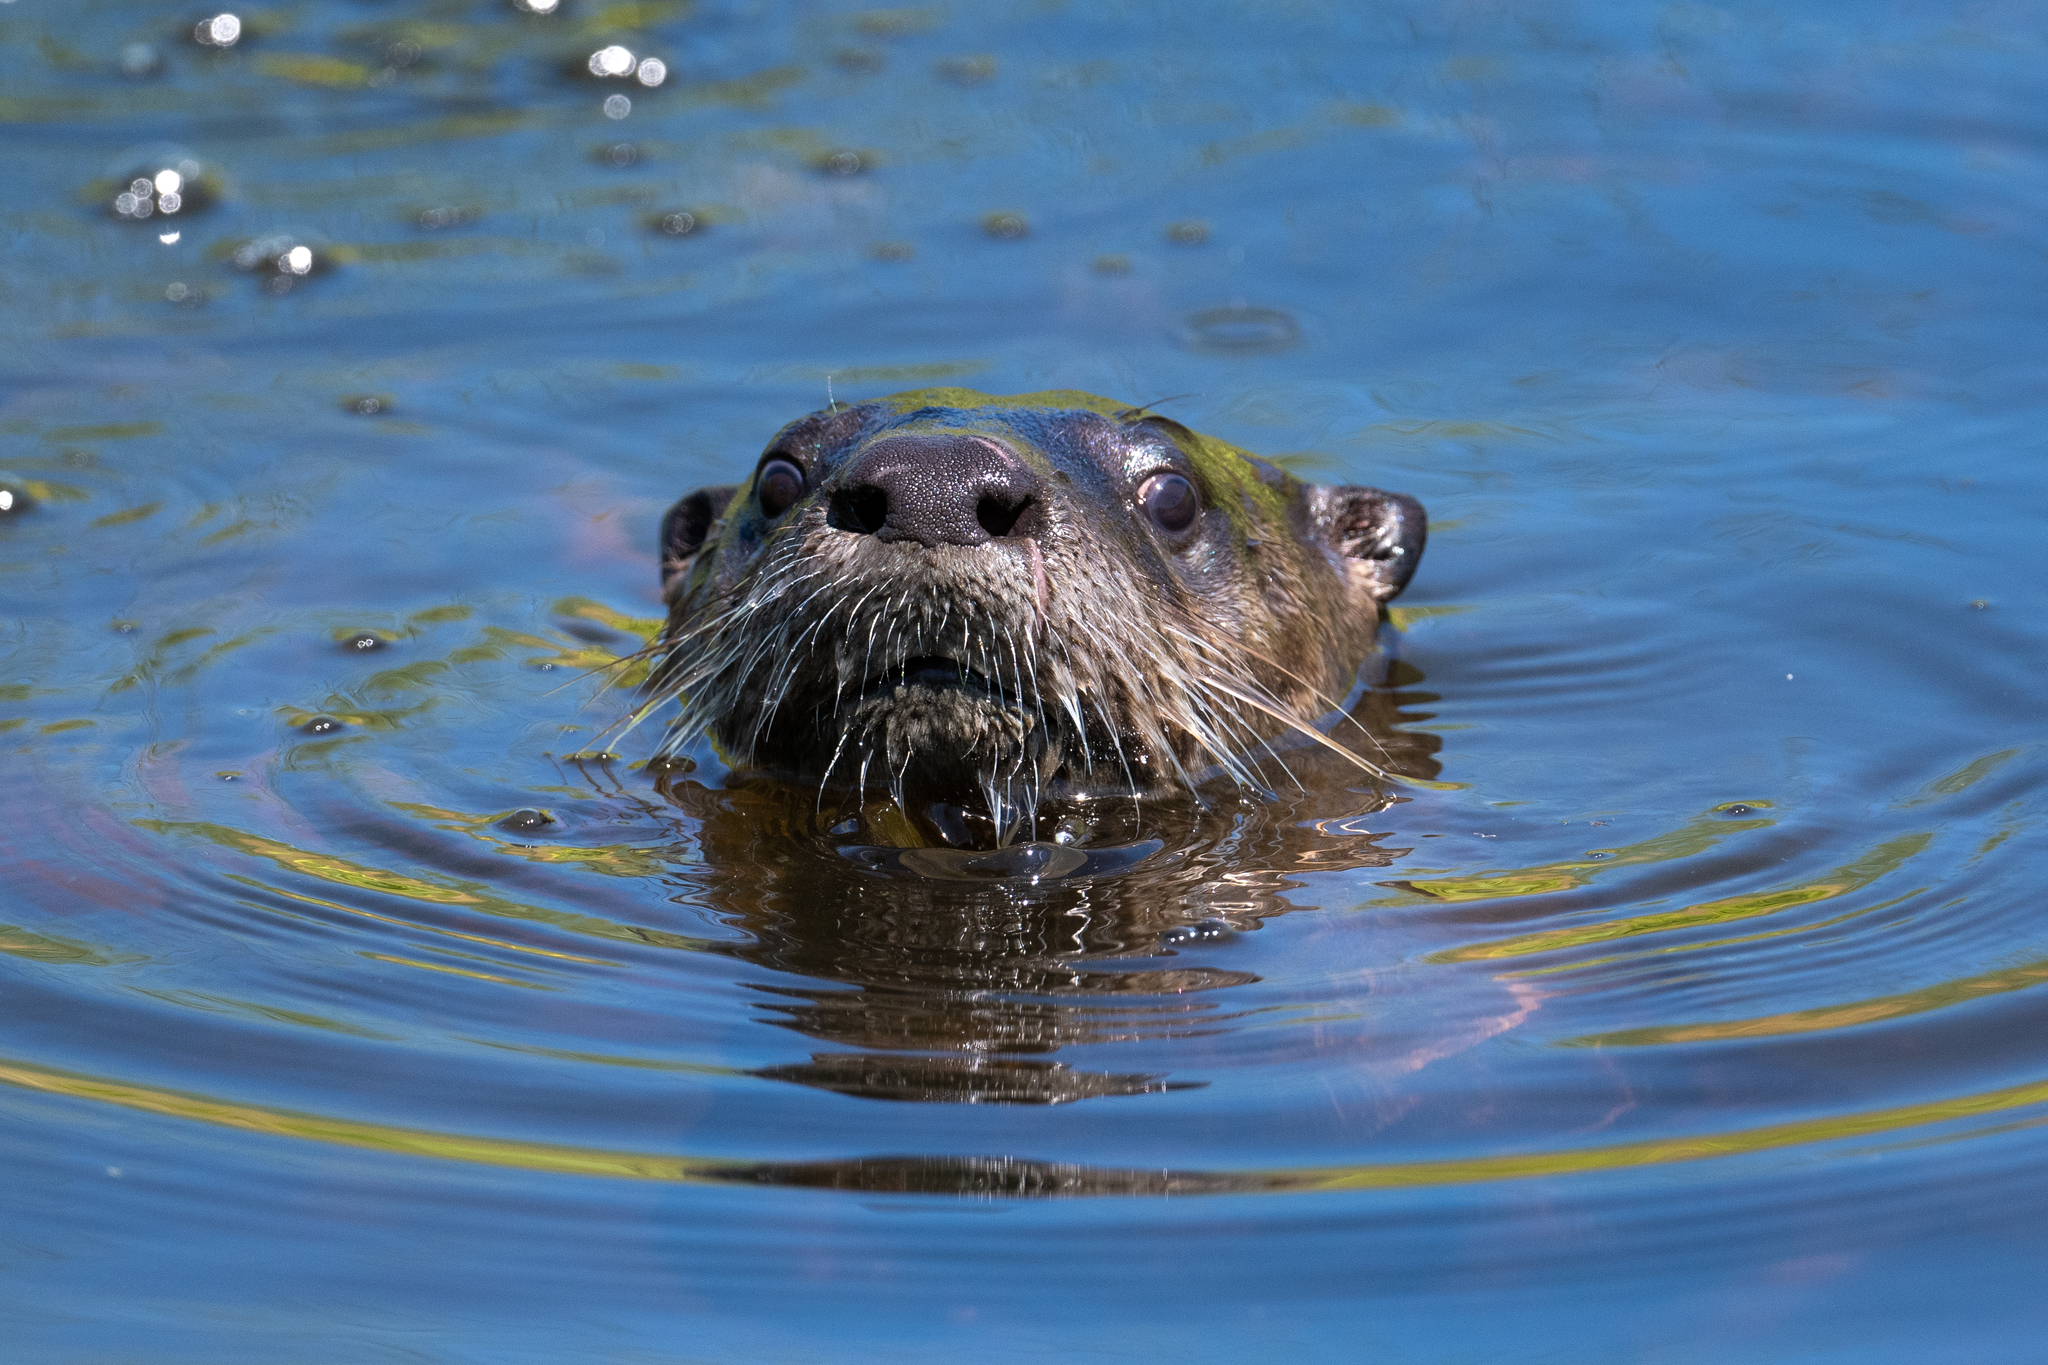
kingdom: Animalia
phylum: Chordata
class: Mammalia
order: Carnivora
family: Mustelidae
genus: Lontra
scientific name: Lontra canadensis
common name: North american river otter
